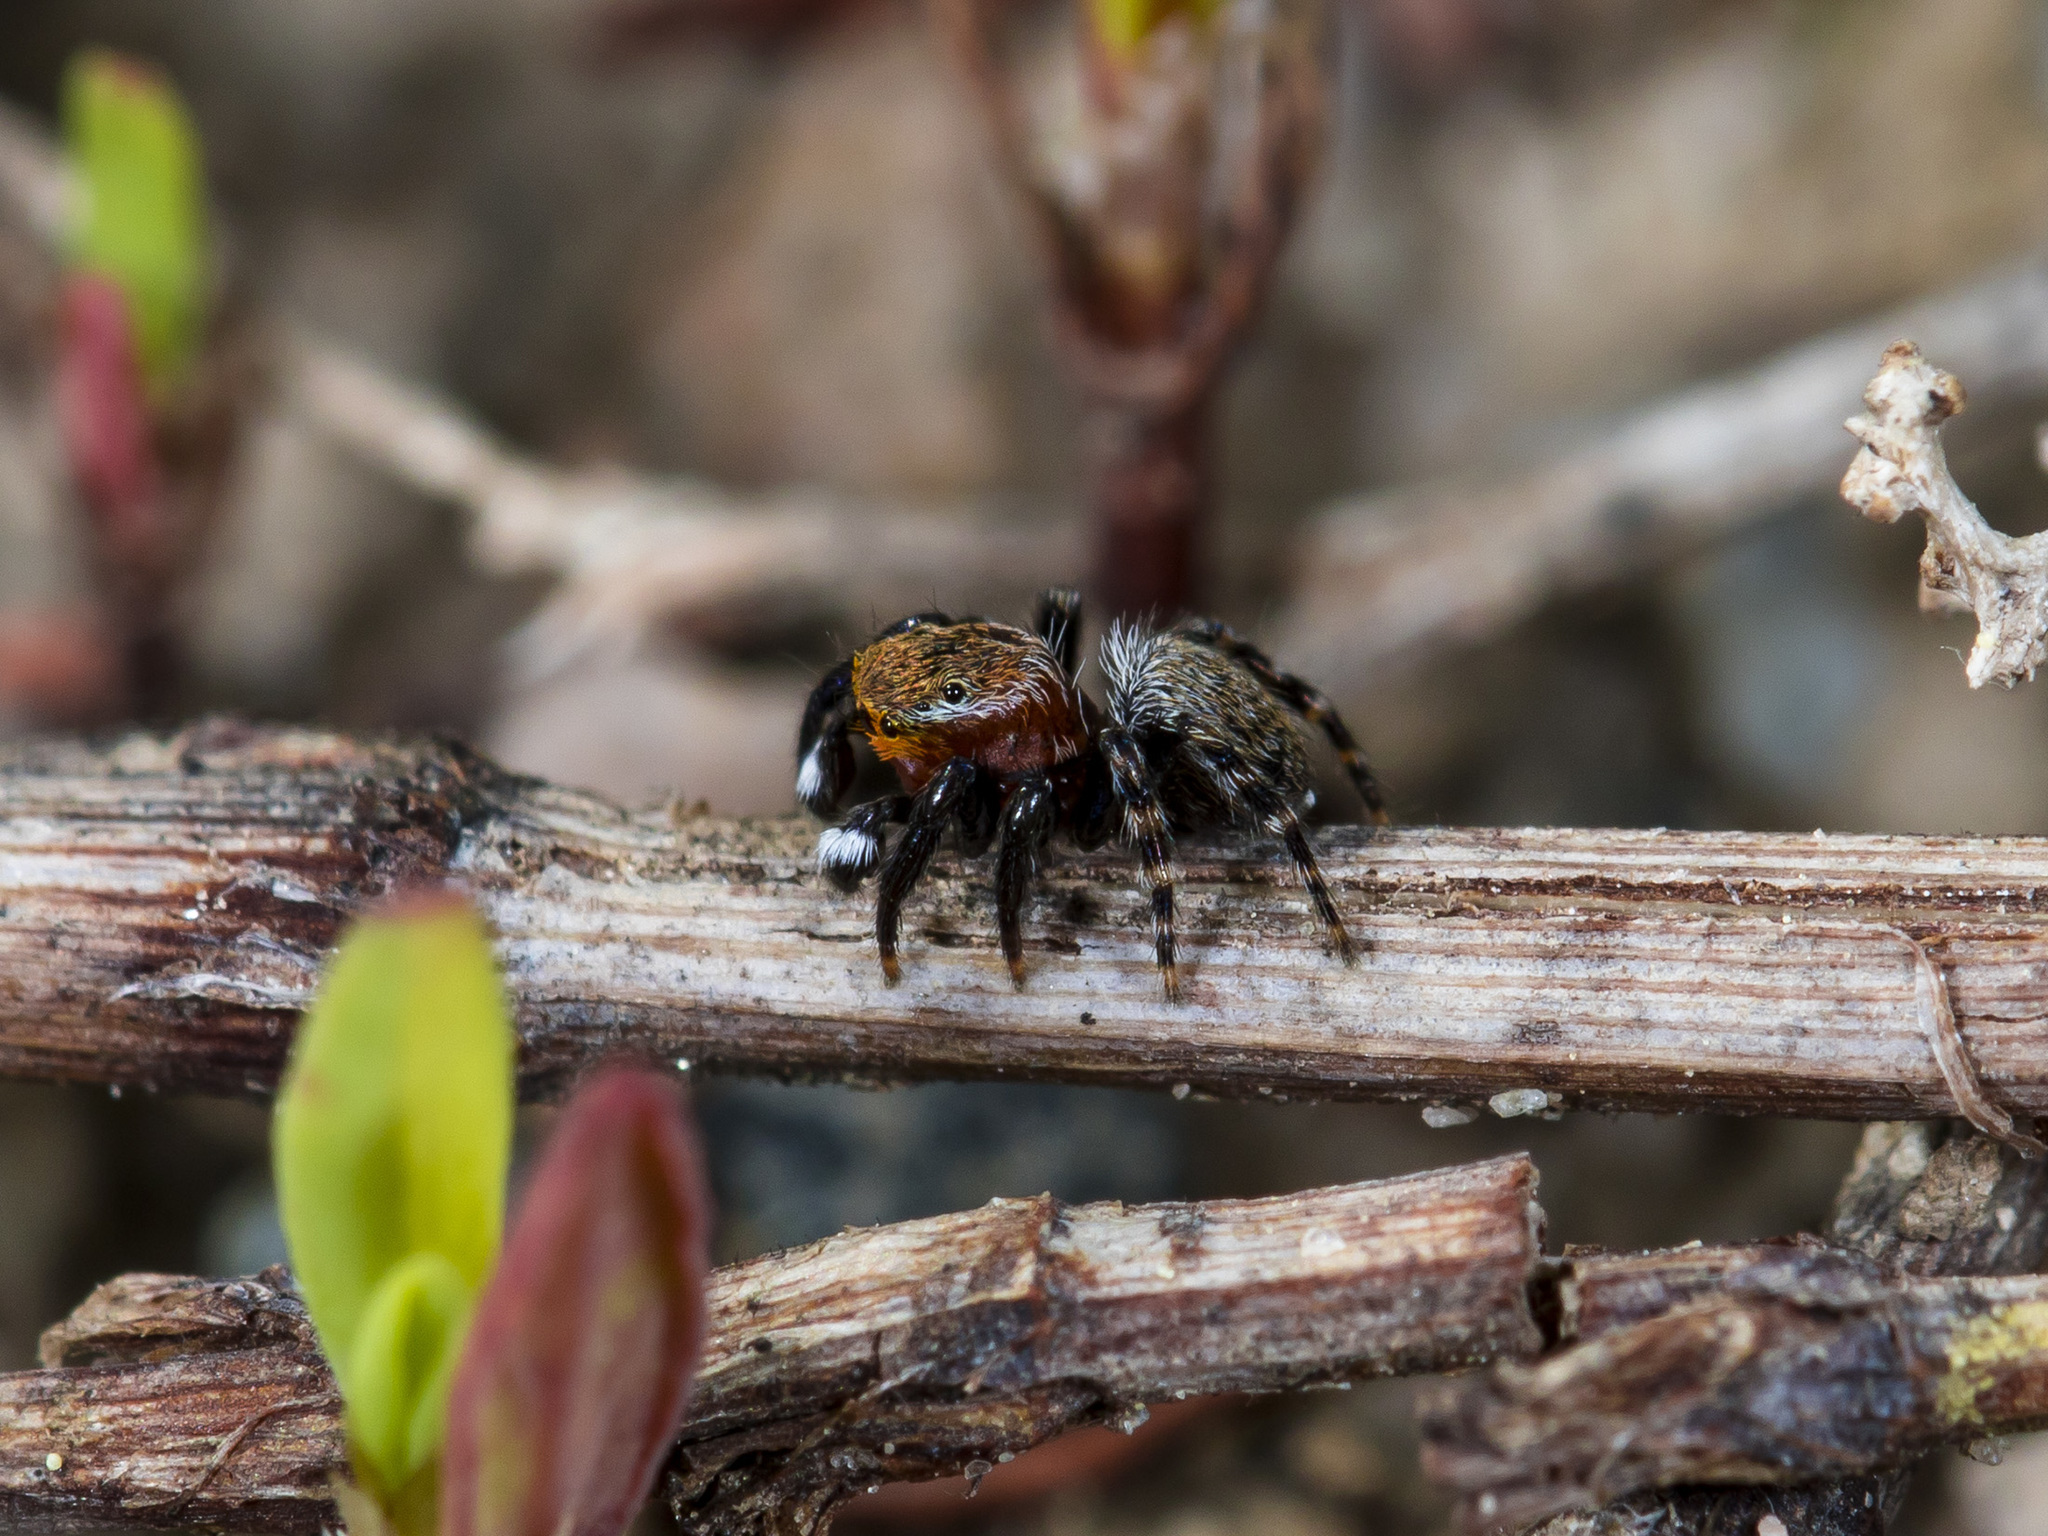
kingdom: Animalia
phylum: Arthropoda
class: Arachnida
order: Araneae
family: Salticidae
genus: Talavera
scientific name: Talavera petrensis
